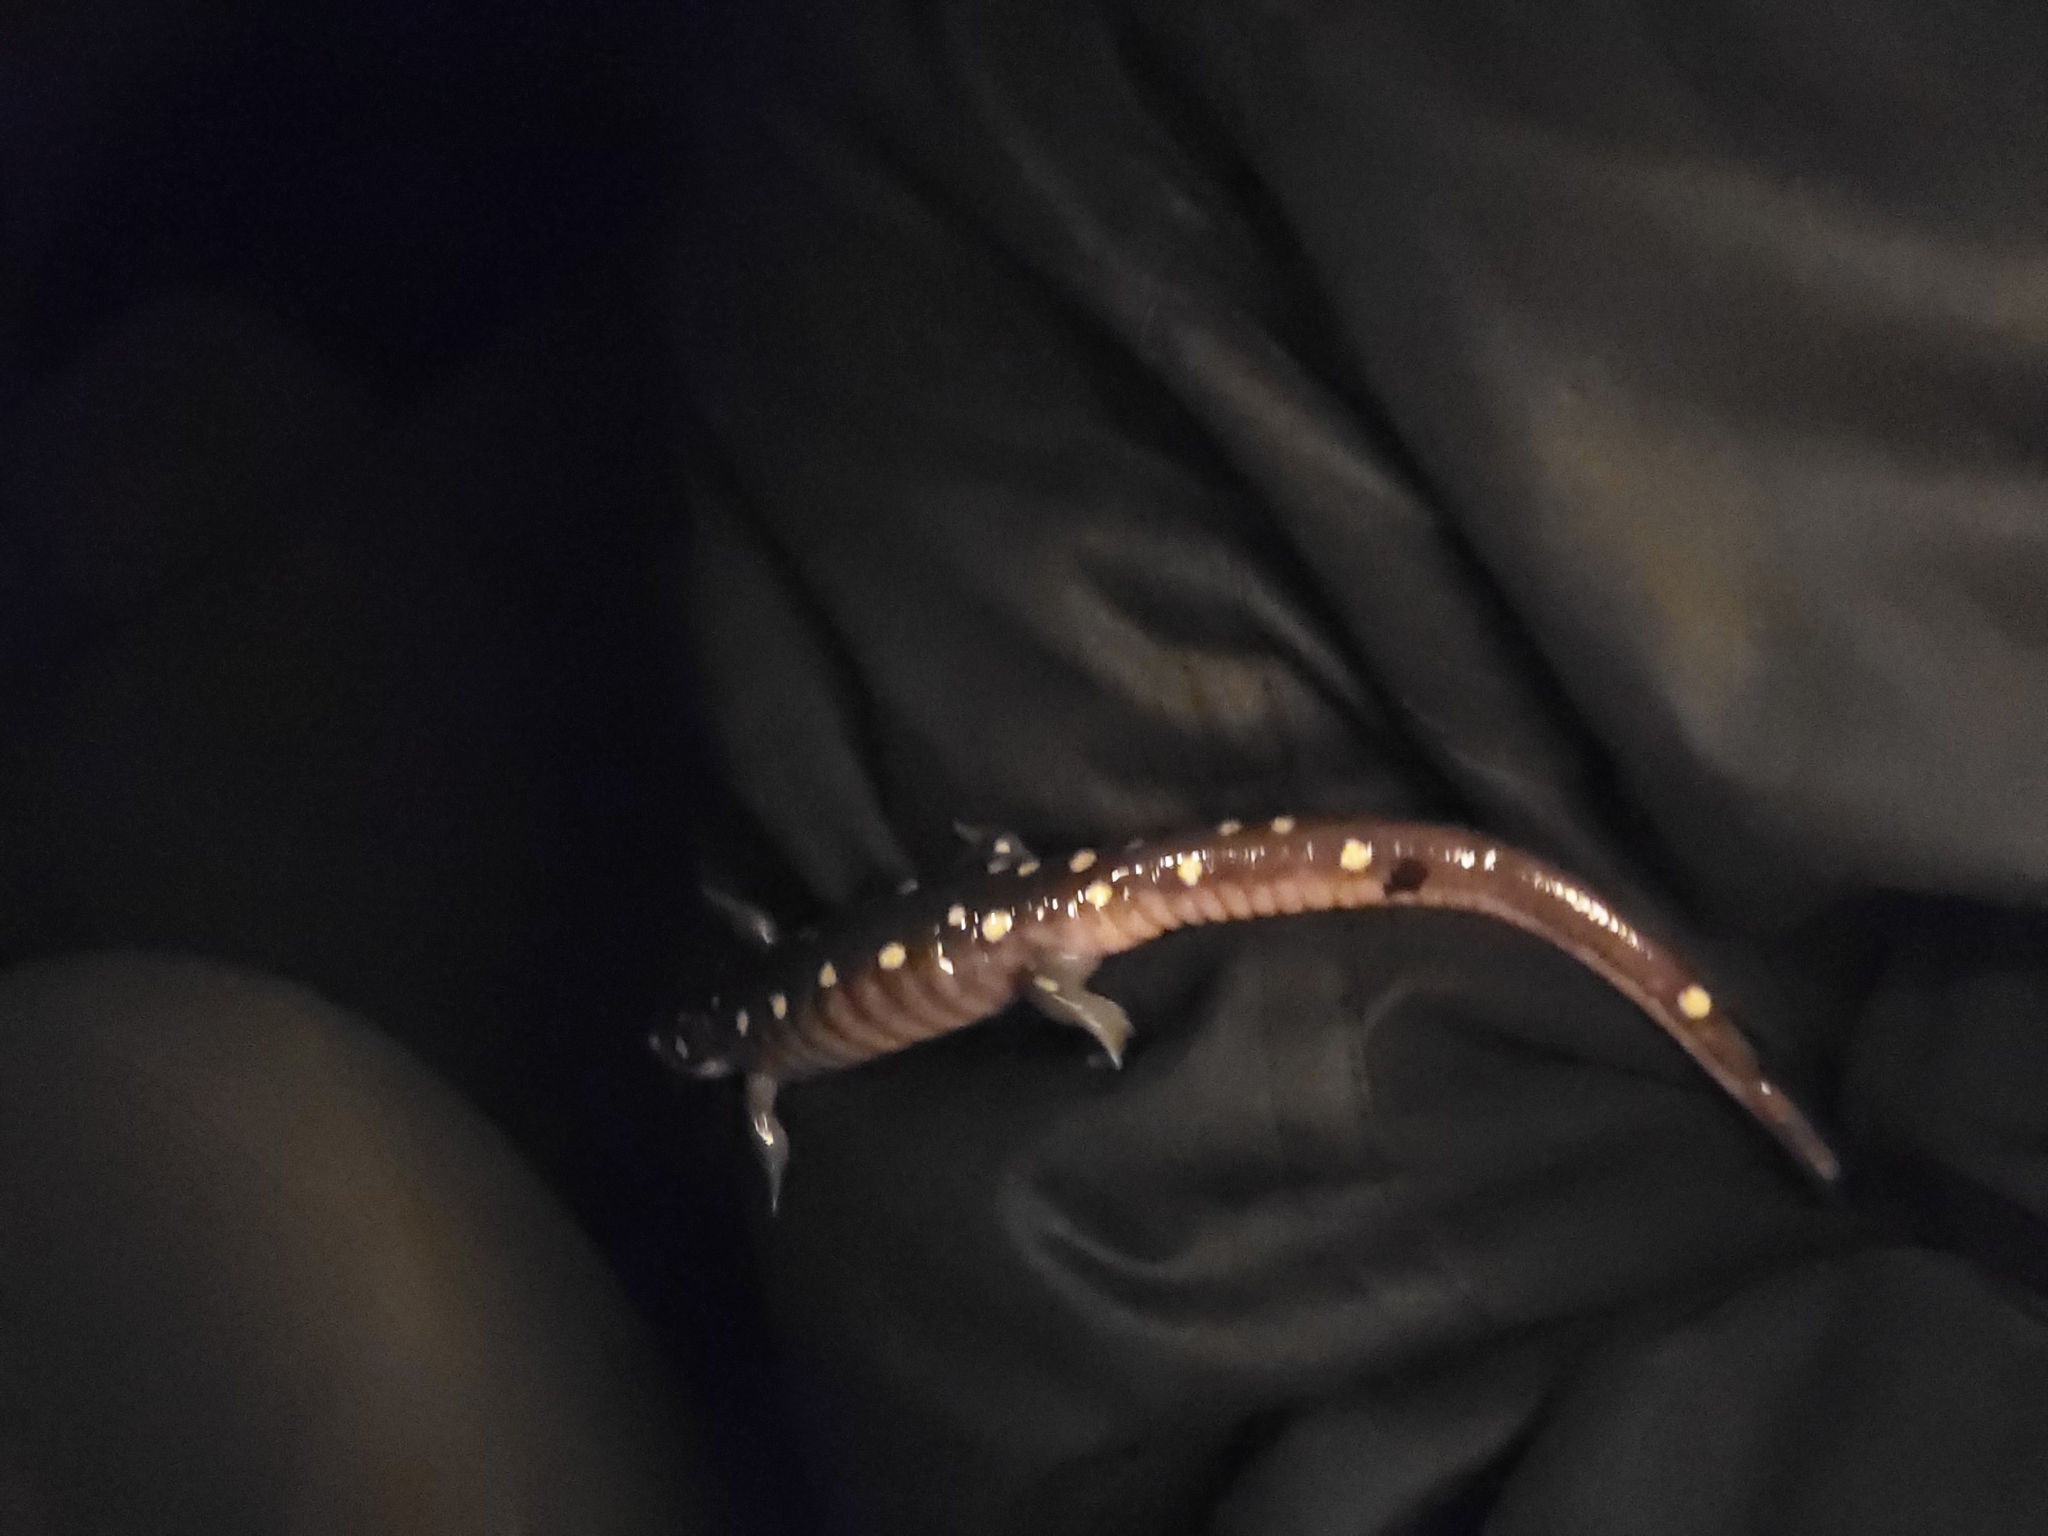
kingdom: Animalia
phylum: Chordata
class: Amphibia
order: Caudata
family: Ambystomatidae
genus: Ambystoma
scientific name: Ambystoma maculatum
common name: Spotted salamander
